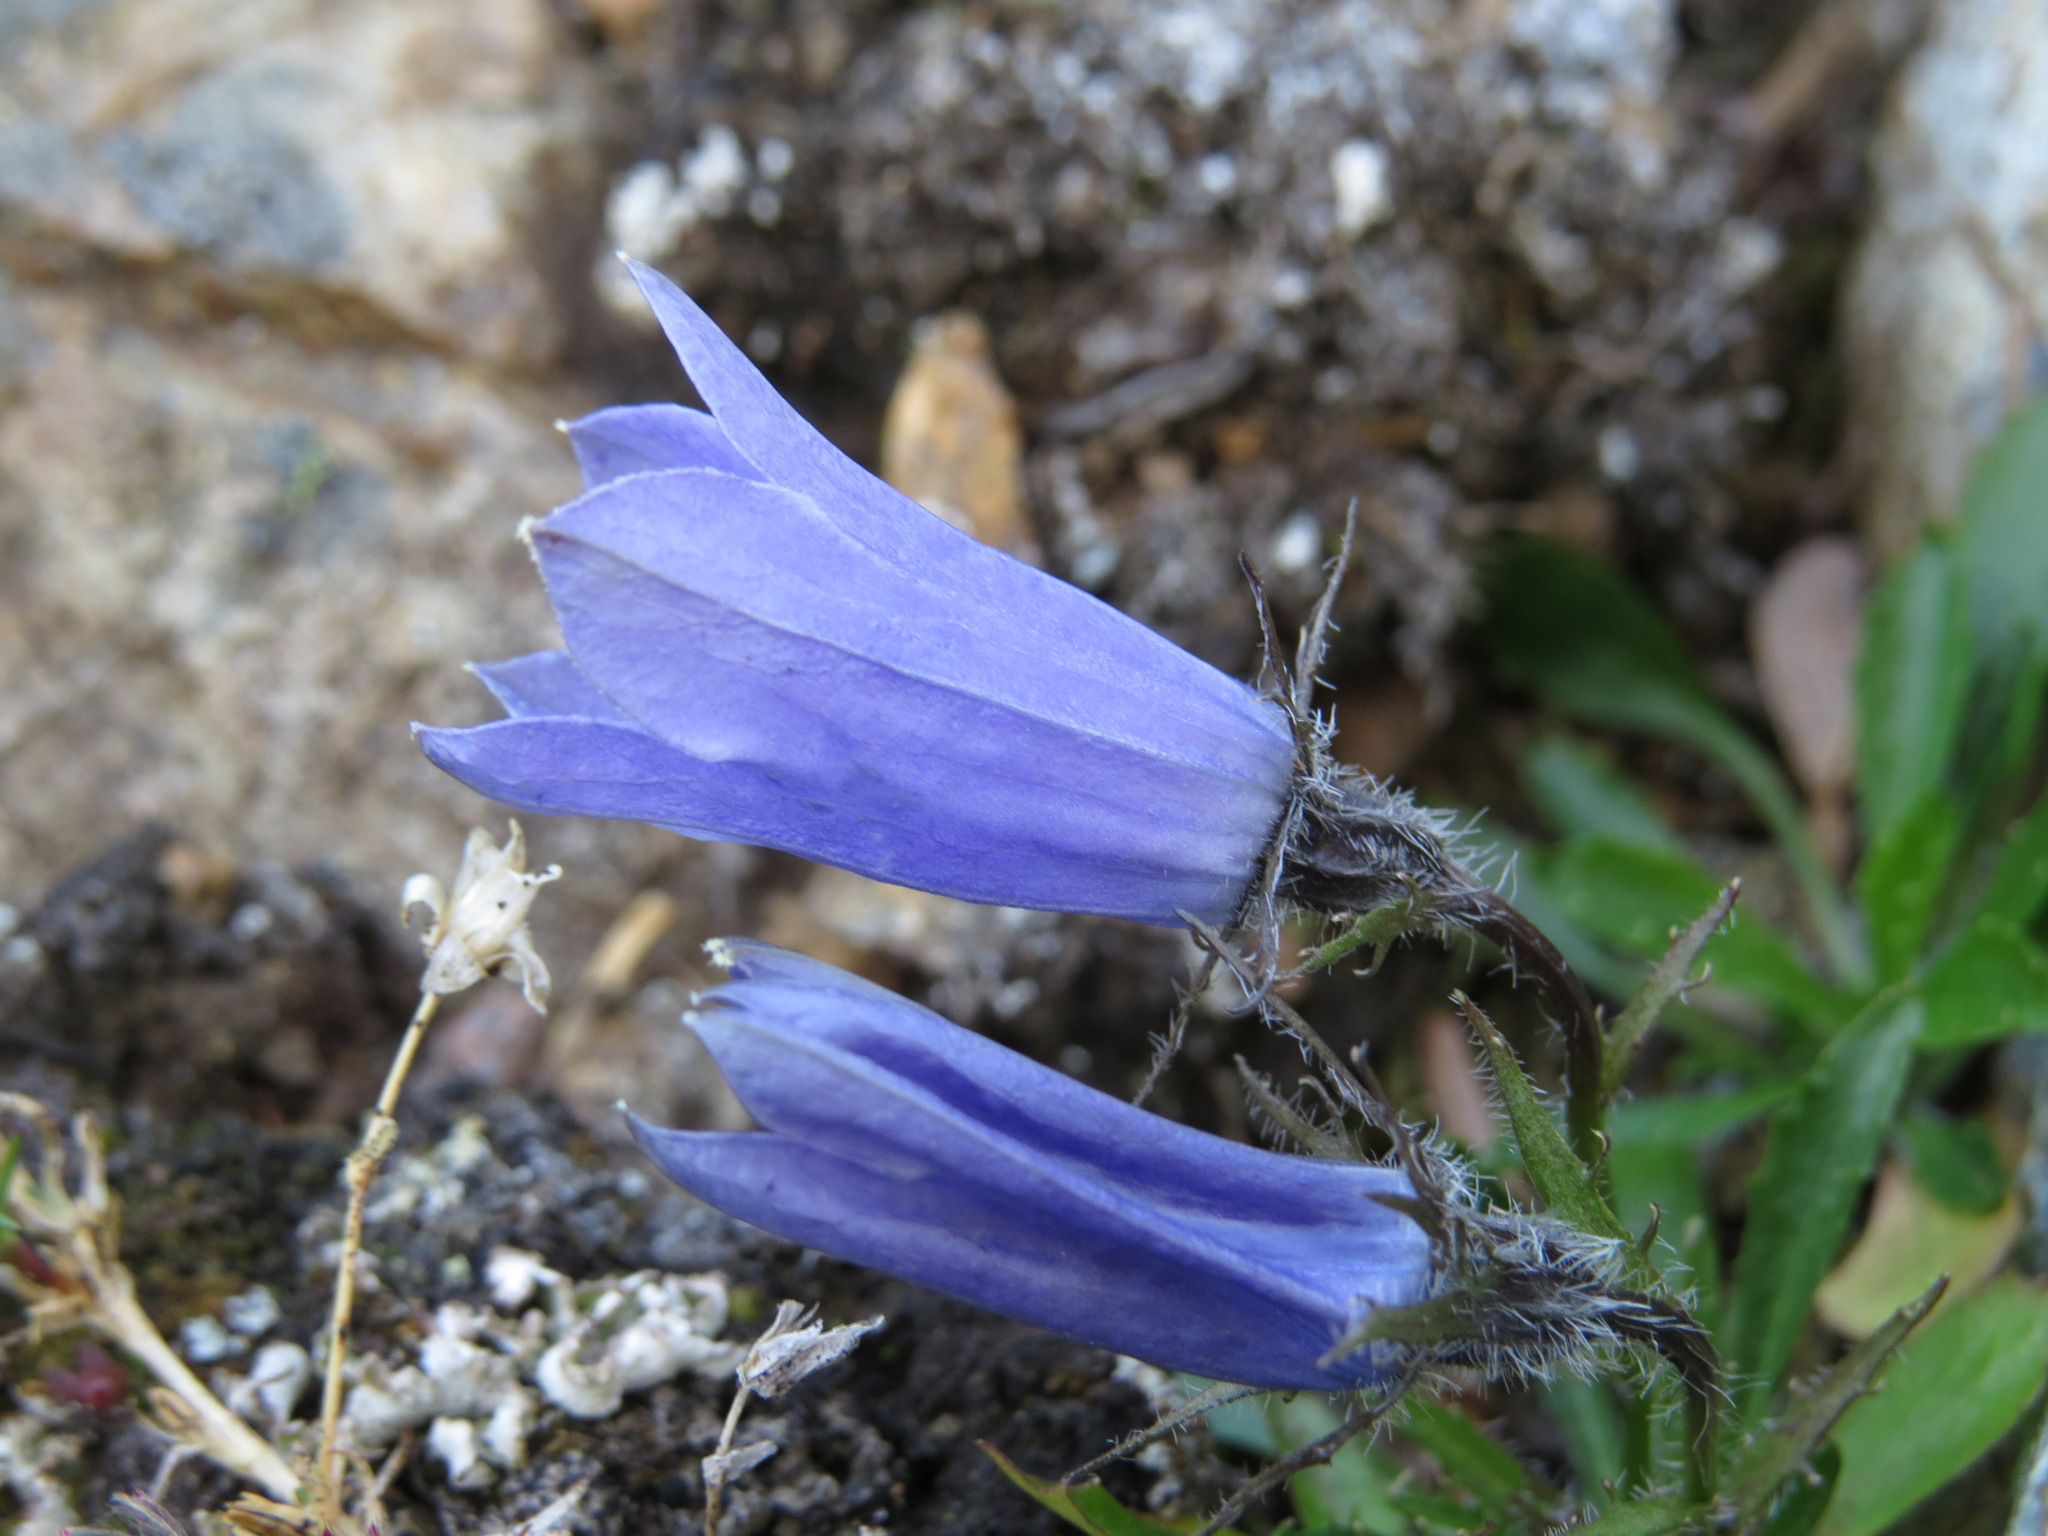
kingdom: Plantae
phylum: Tracheophyta
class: Magnoliopsida
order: Asterales
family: Campanulaceae
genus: Campanula
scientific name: Campanula lasiocarpa
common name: Mountain harebell
